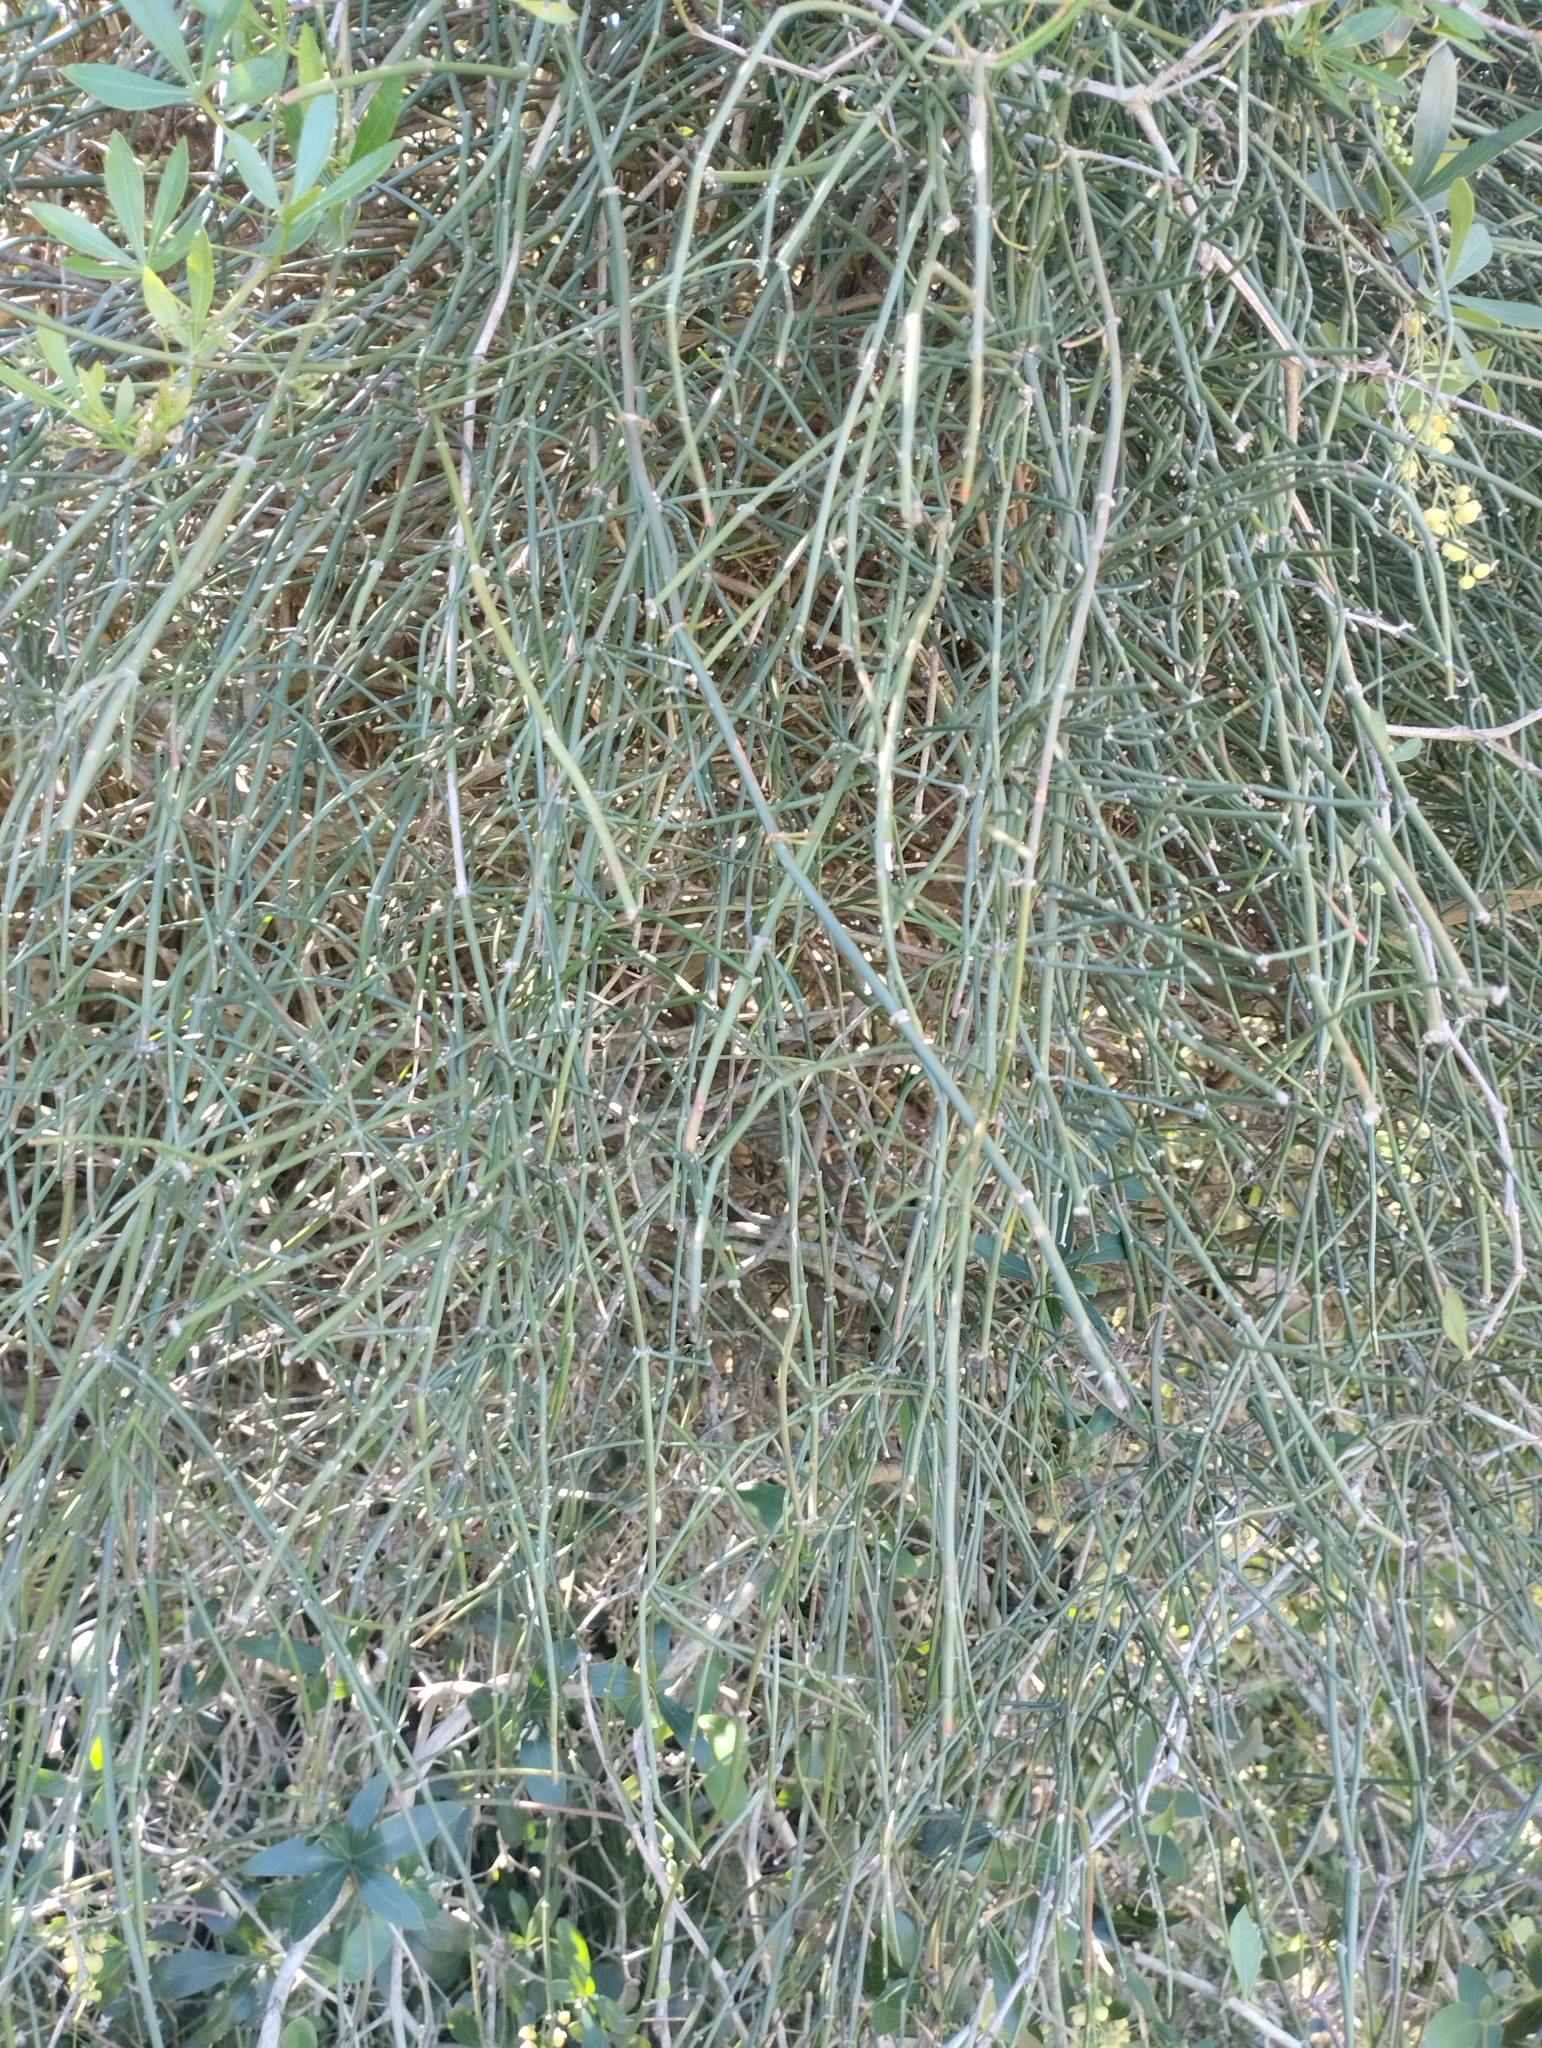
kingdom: Plantae
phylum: Tracheophyta
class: Gnetopsida
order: Ephedrales
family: Ephedraceae
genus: Ephedra
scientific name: Ephedra tweedieana
